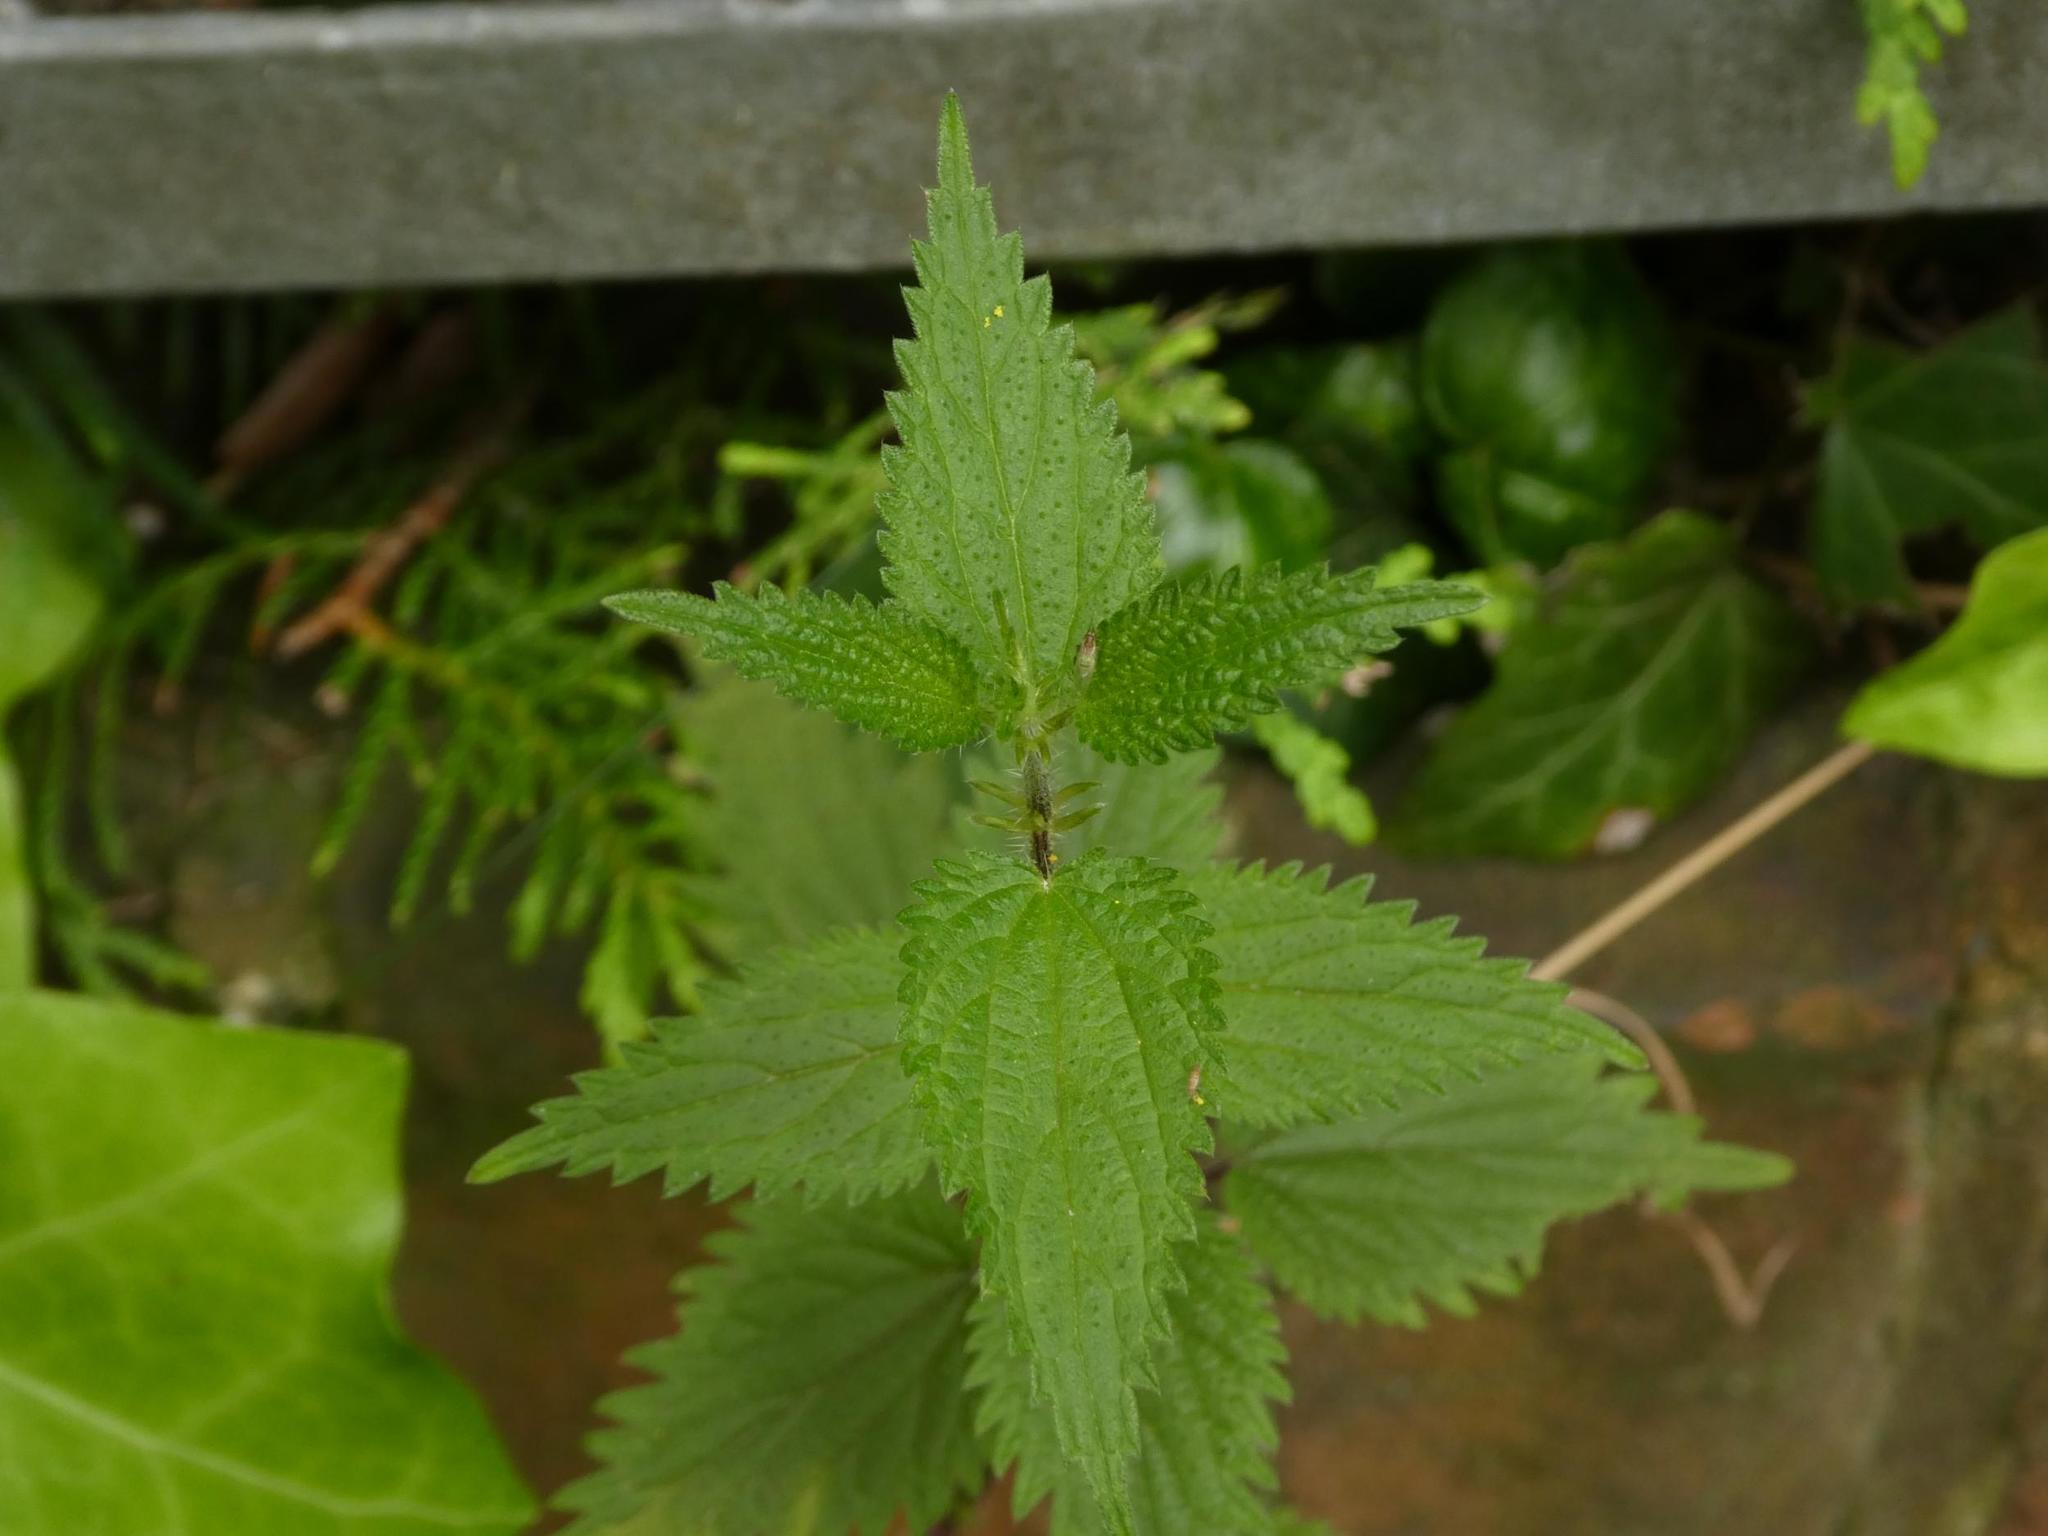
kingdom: Plantae
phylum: Tracheophyta
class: Magnoliopsida
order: Rosales
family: Urticaceae
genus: Urtica
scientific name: Urtica dioica
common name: Common nettle
